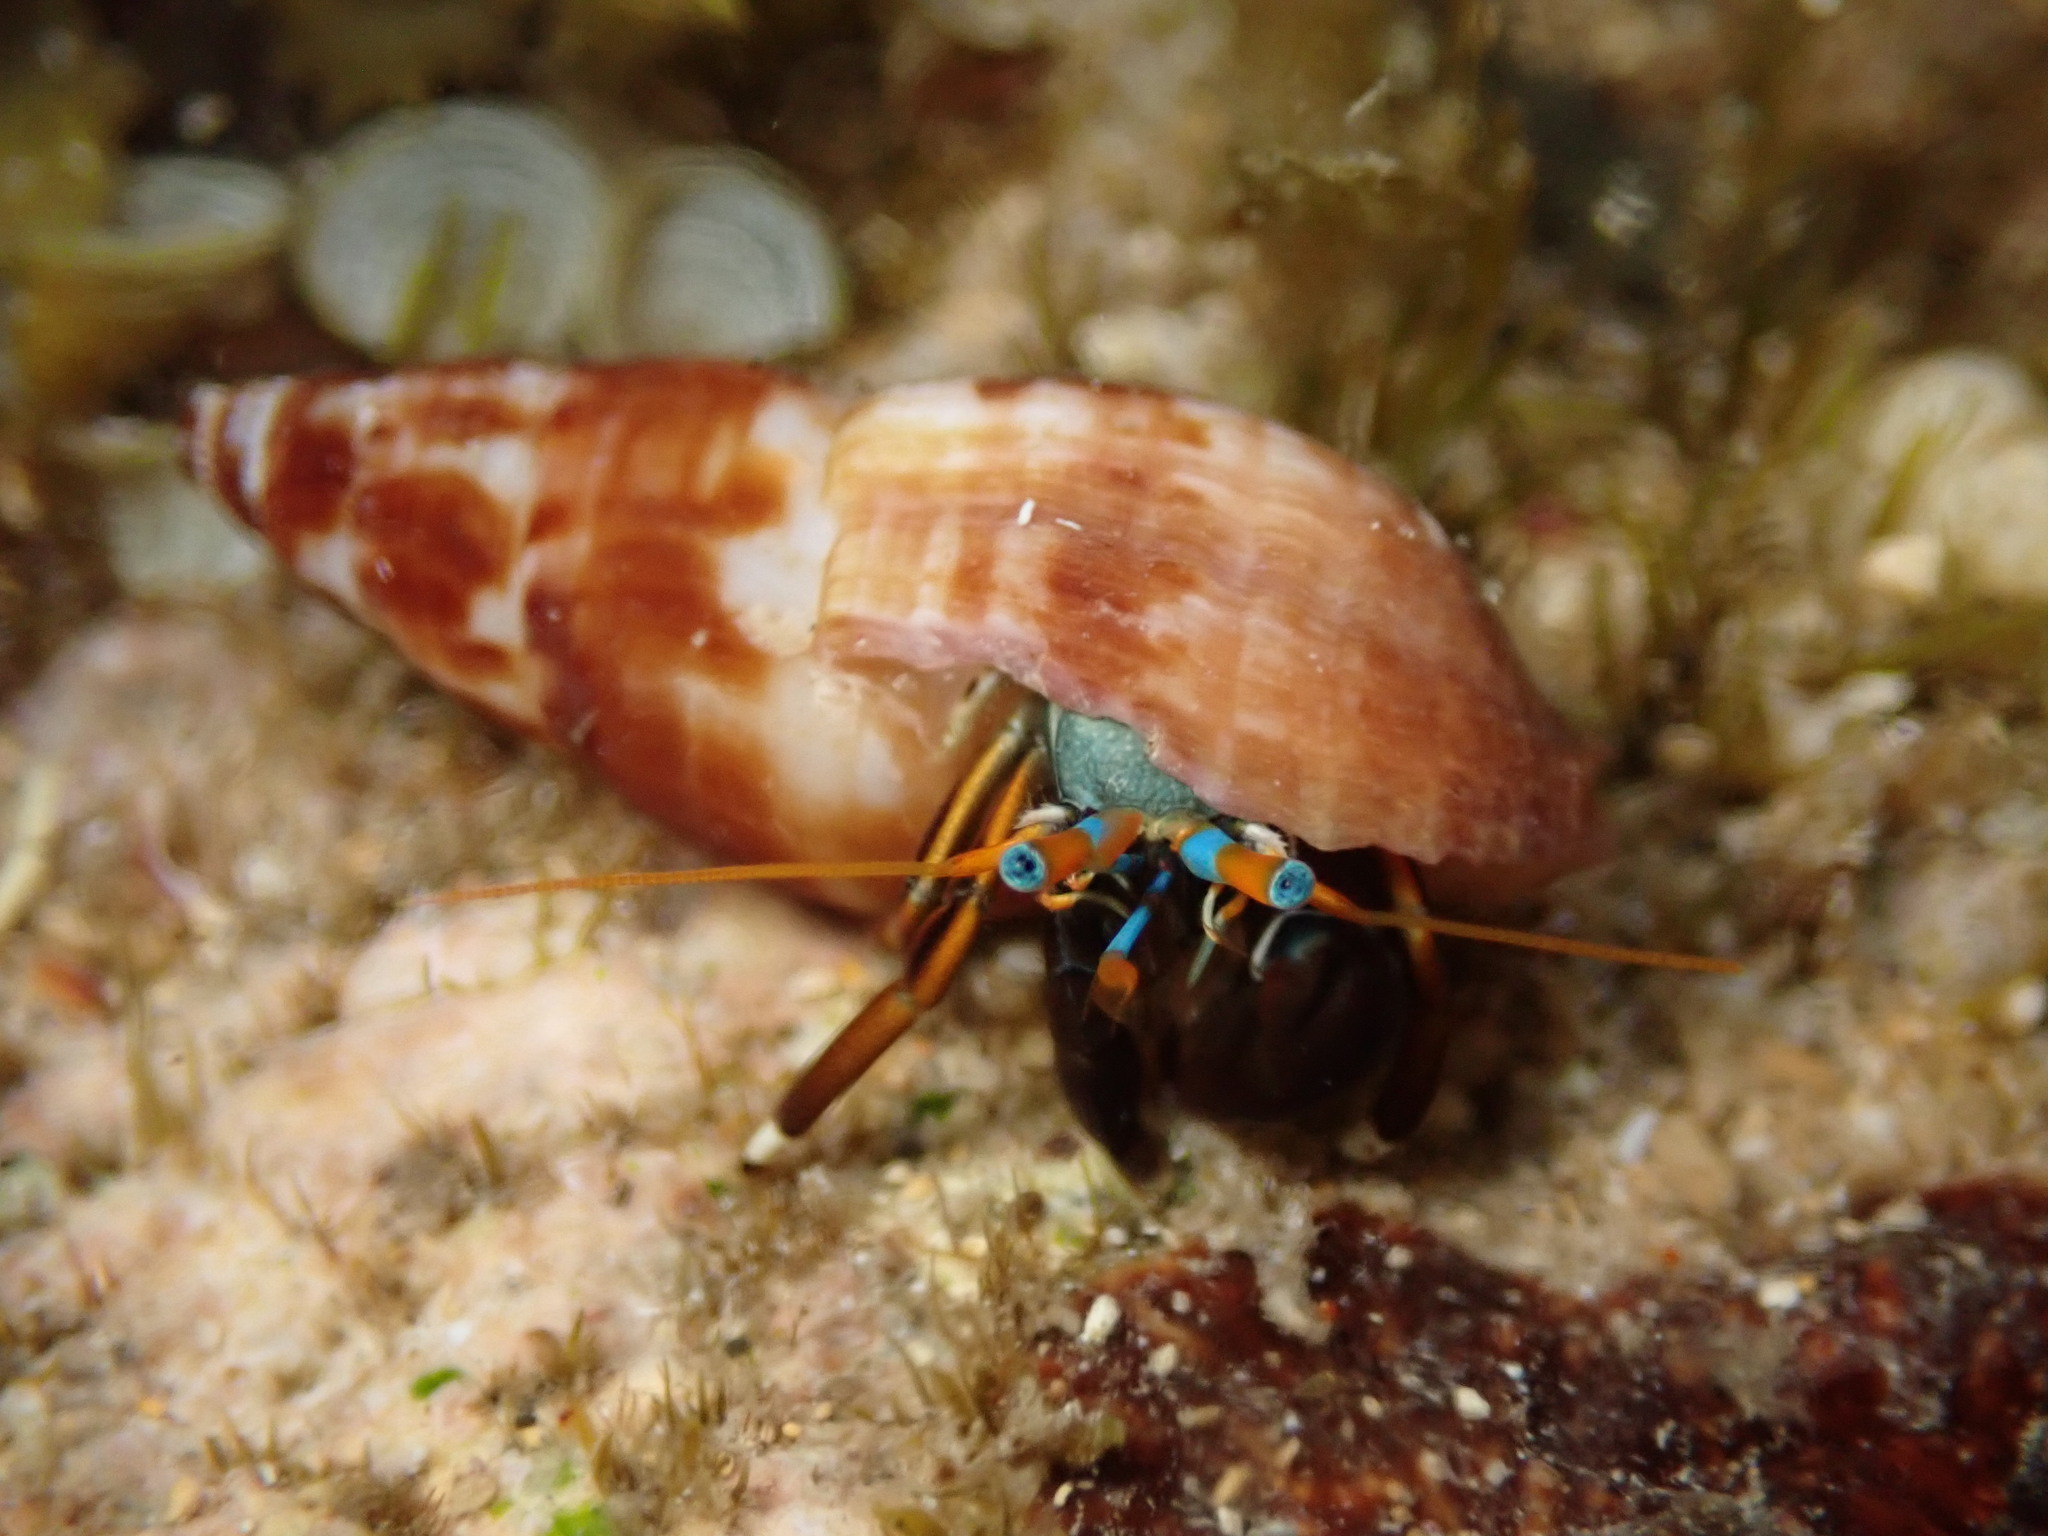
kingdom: Animalia
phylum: Arthropoda
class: Malacostraca
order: Decapoda
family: Diogenidae
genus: Calcinus
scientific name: Calcinus laevimanus
